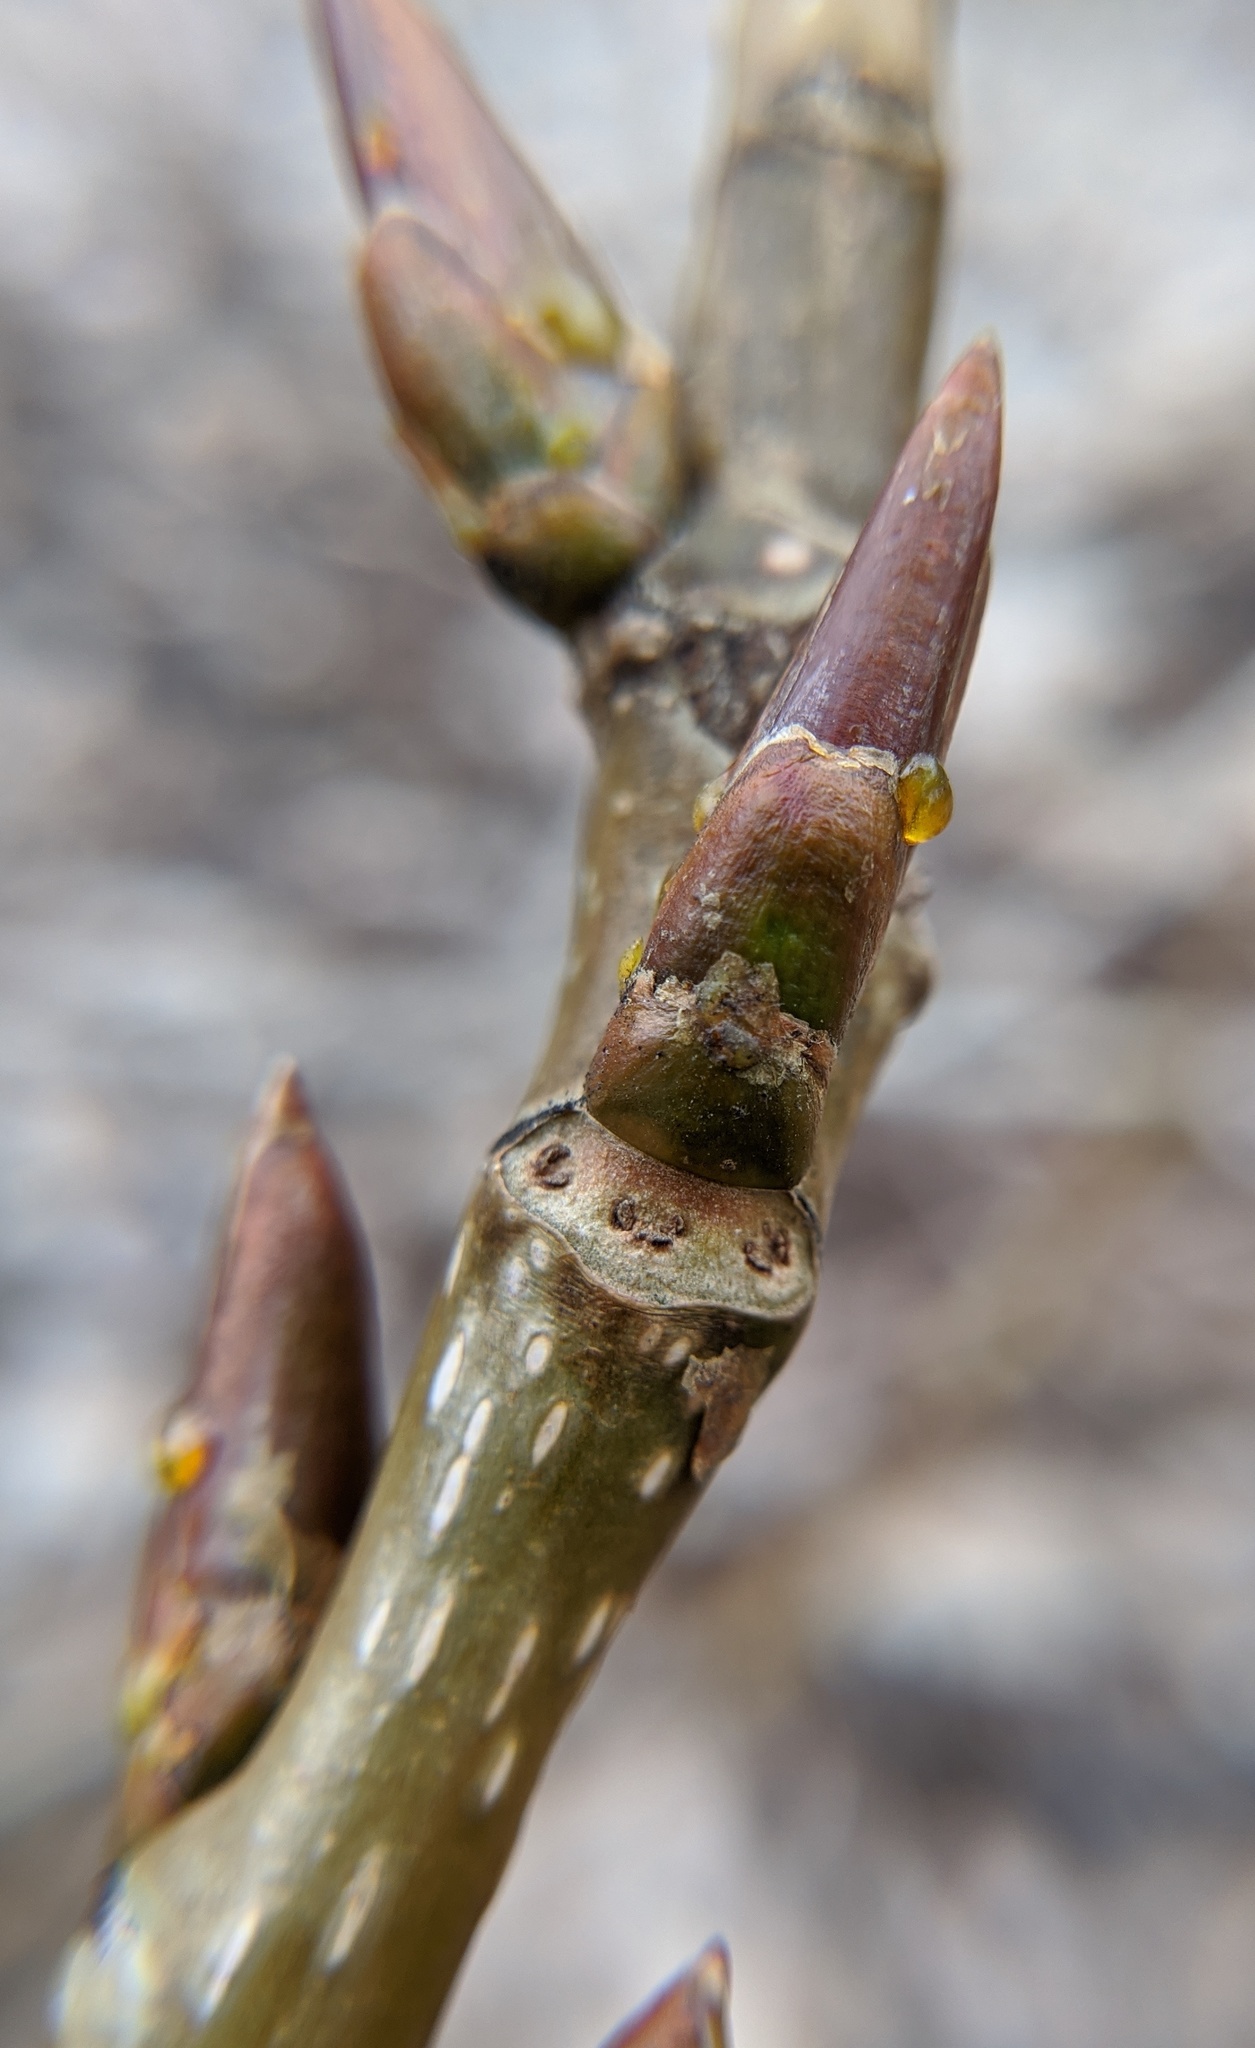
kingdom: Plantae
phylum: Tracheophyta
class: Magnoliopsida
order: Malpighiales
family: Salicaceae
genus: Populus
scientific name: Populus deltoides
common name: Eastern cottonwood
